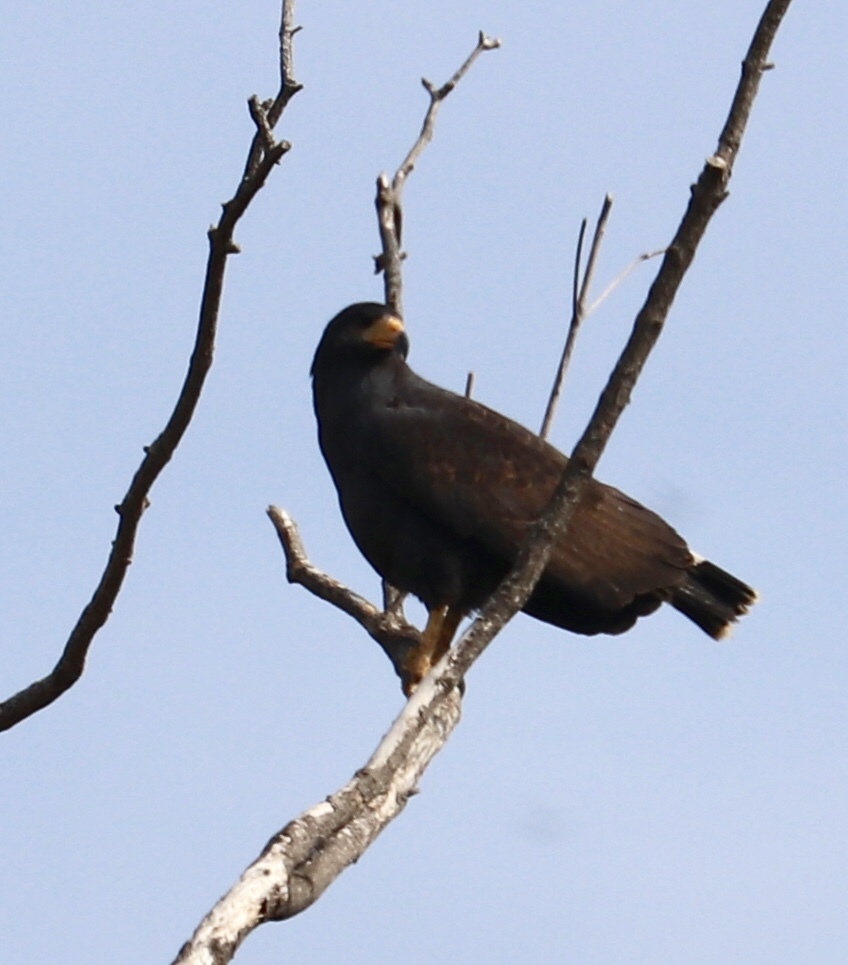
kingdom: Animalia
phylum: Chordata
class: Aves
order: Accipitriformes
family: Accipitridae
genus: Buteogallus
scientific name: Buteogallus anthracinus
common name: Common black hawk
